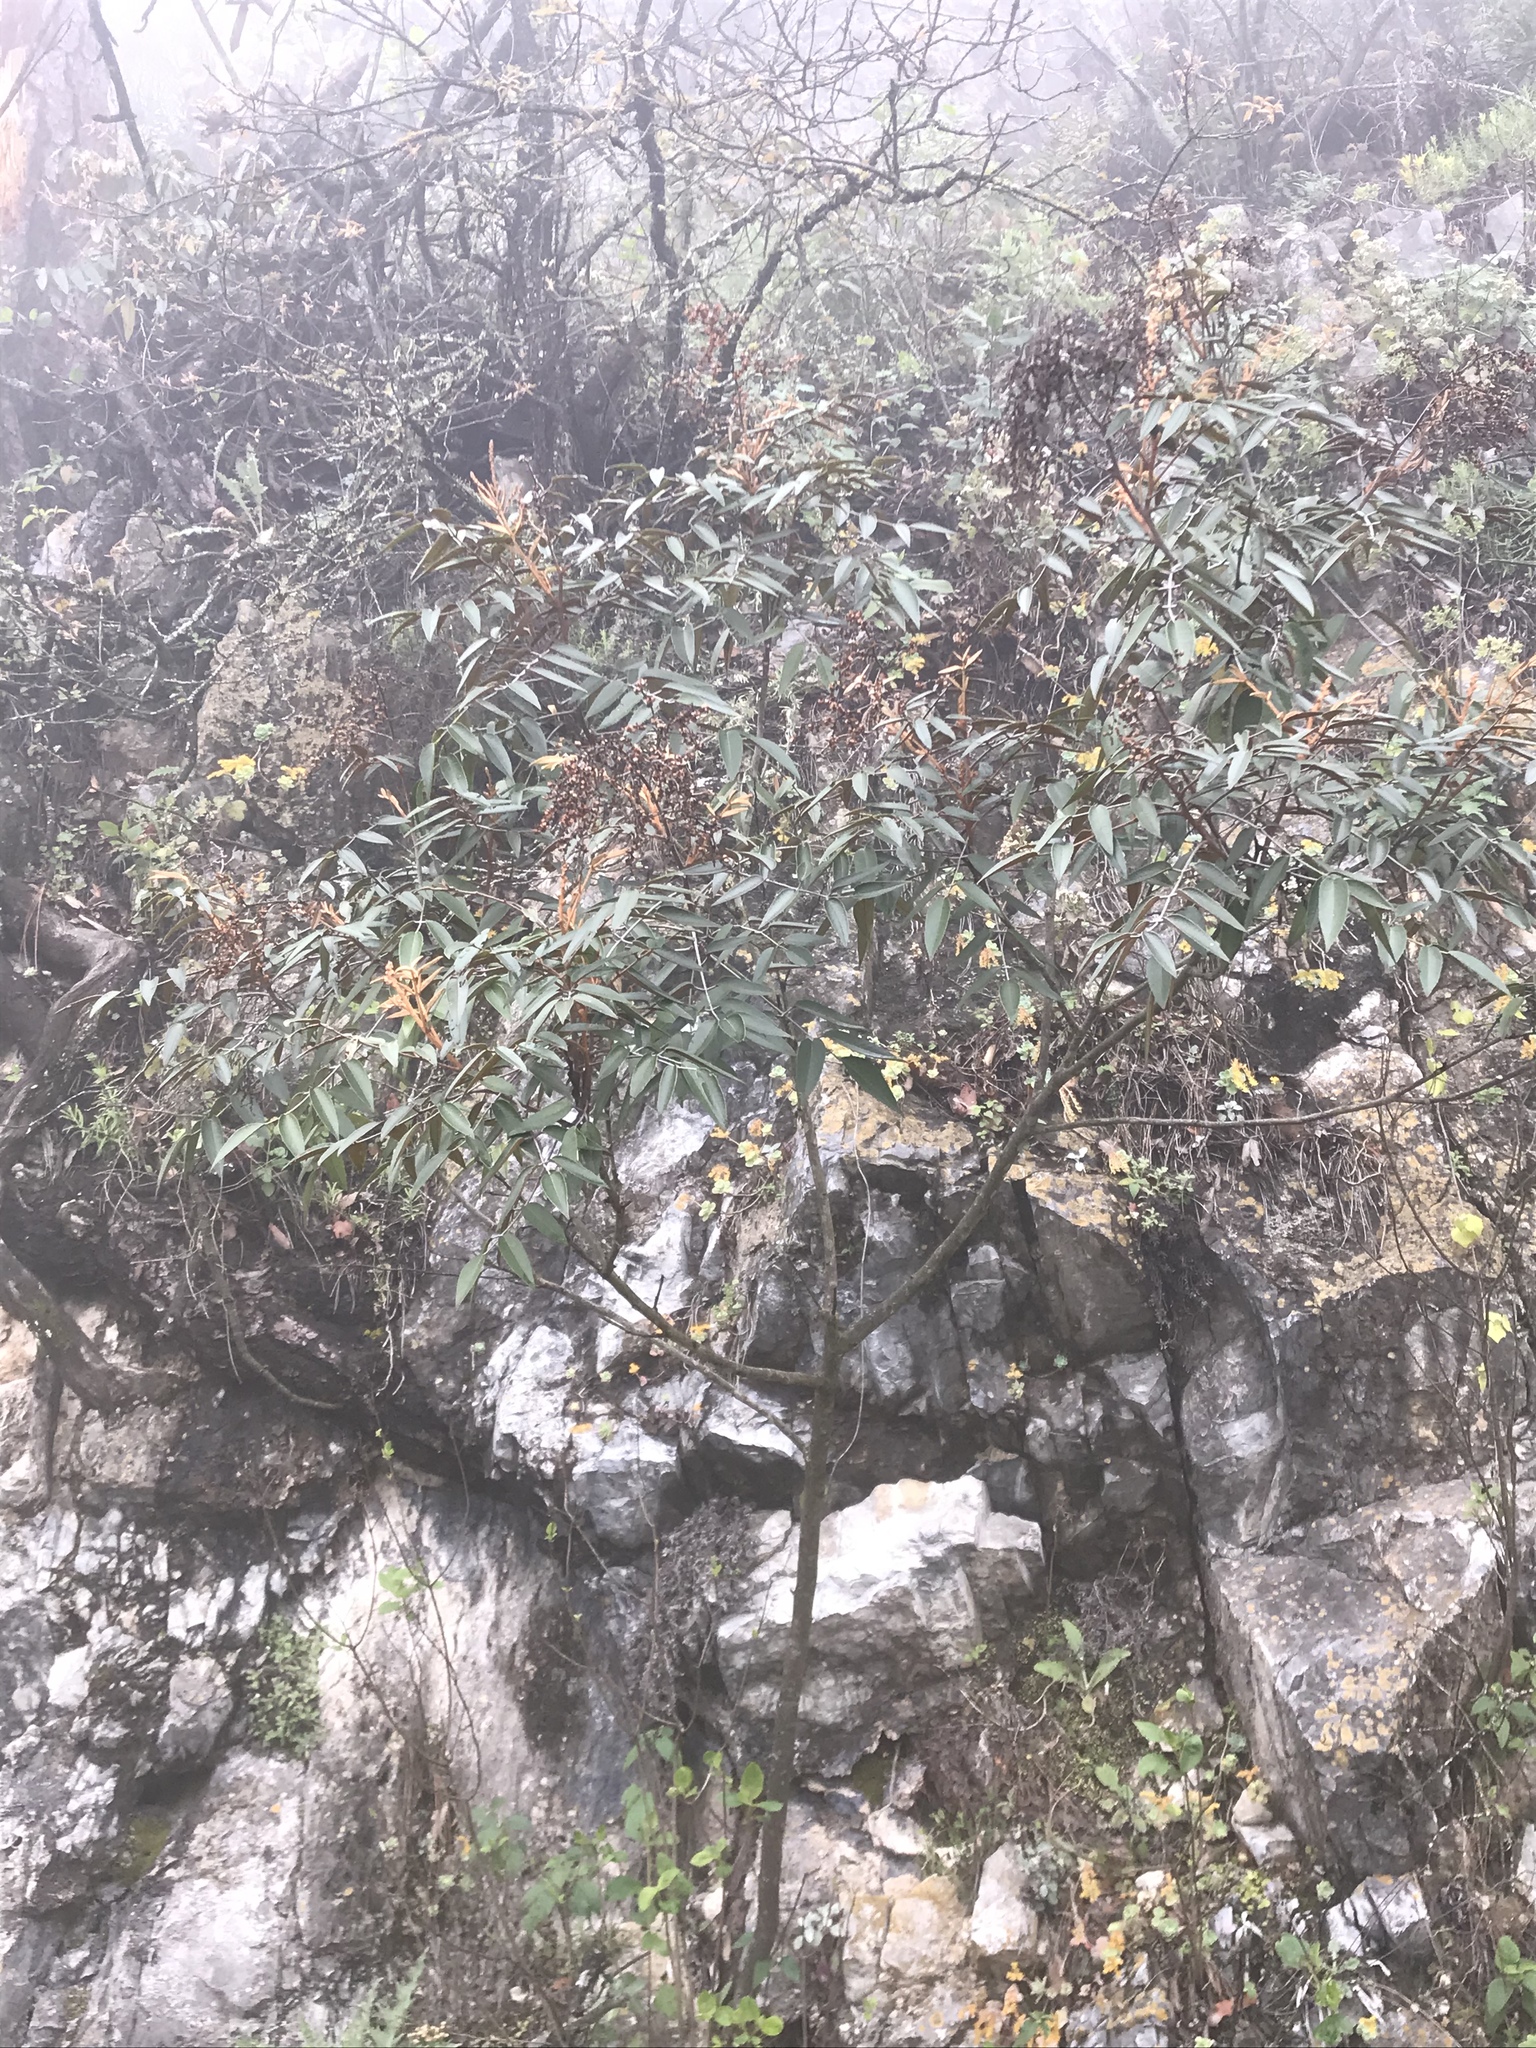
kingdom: Plantae
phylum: Tracheophyta
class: Magnoliopsida
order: Sapindales
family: Rutaceae
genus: Decatropis
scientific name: Decatropis bicolor
